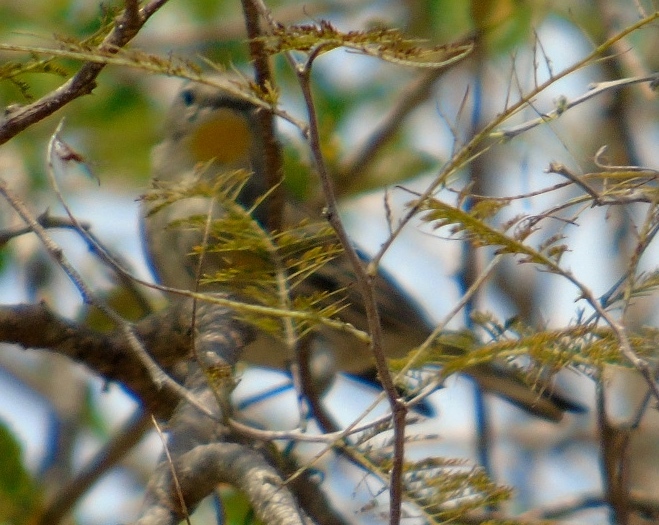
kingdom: Animalia
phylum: Chordata
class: Aves
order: Passeriformes
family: Parulidae
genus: Setophaga
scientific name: Setophaga auduboni
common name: Audubon's warbler
